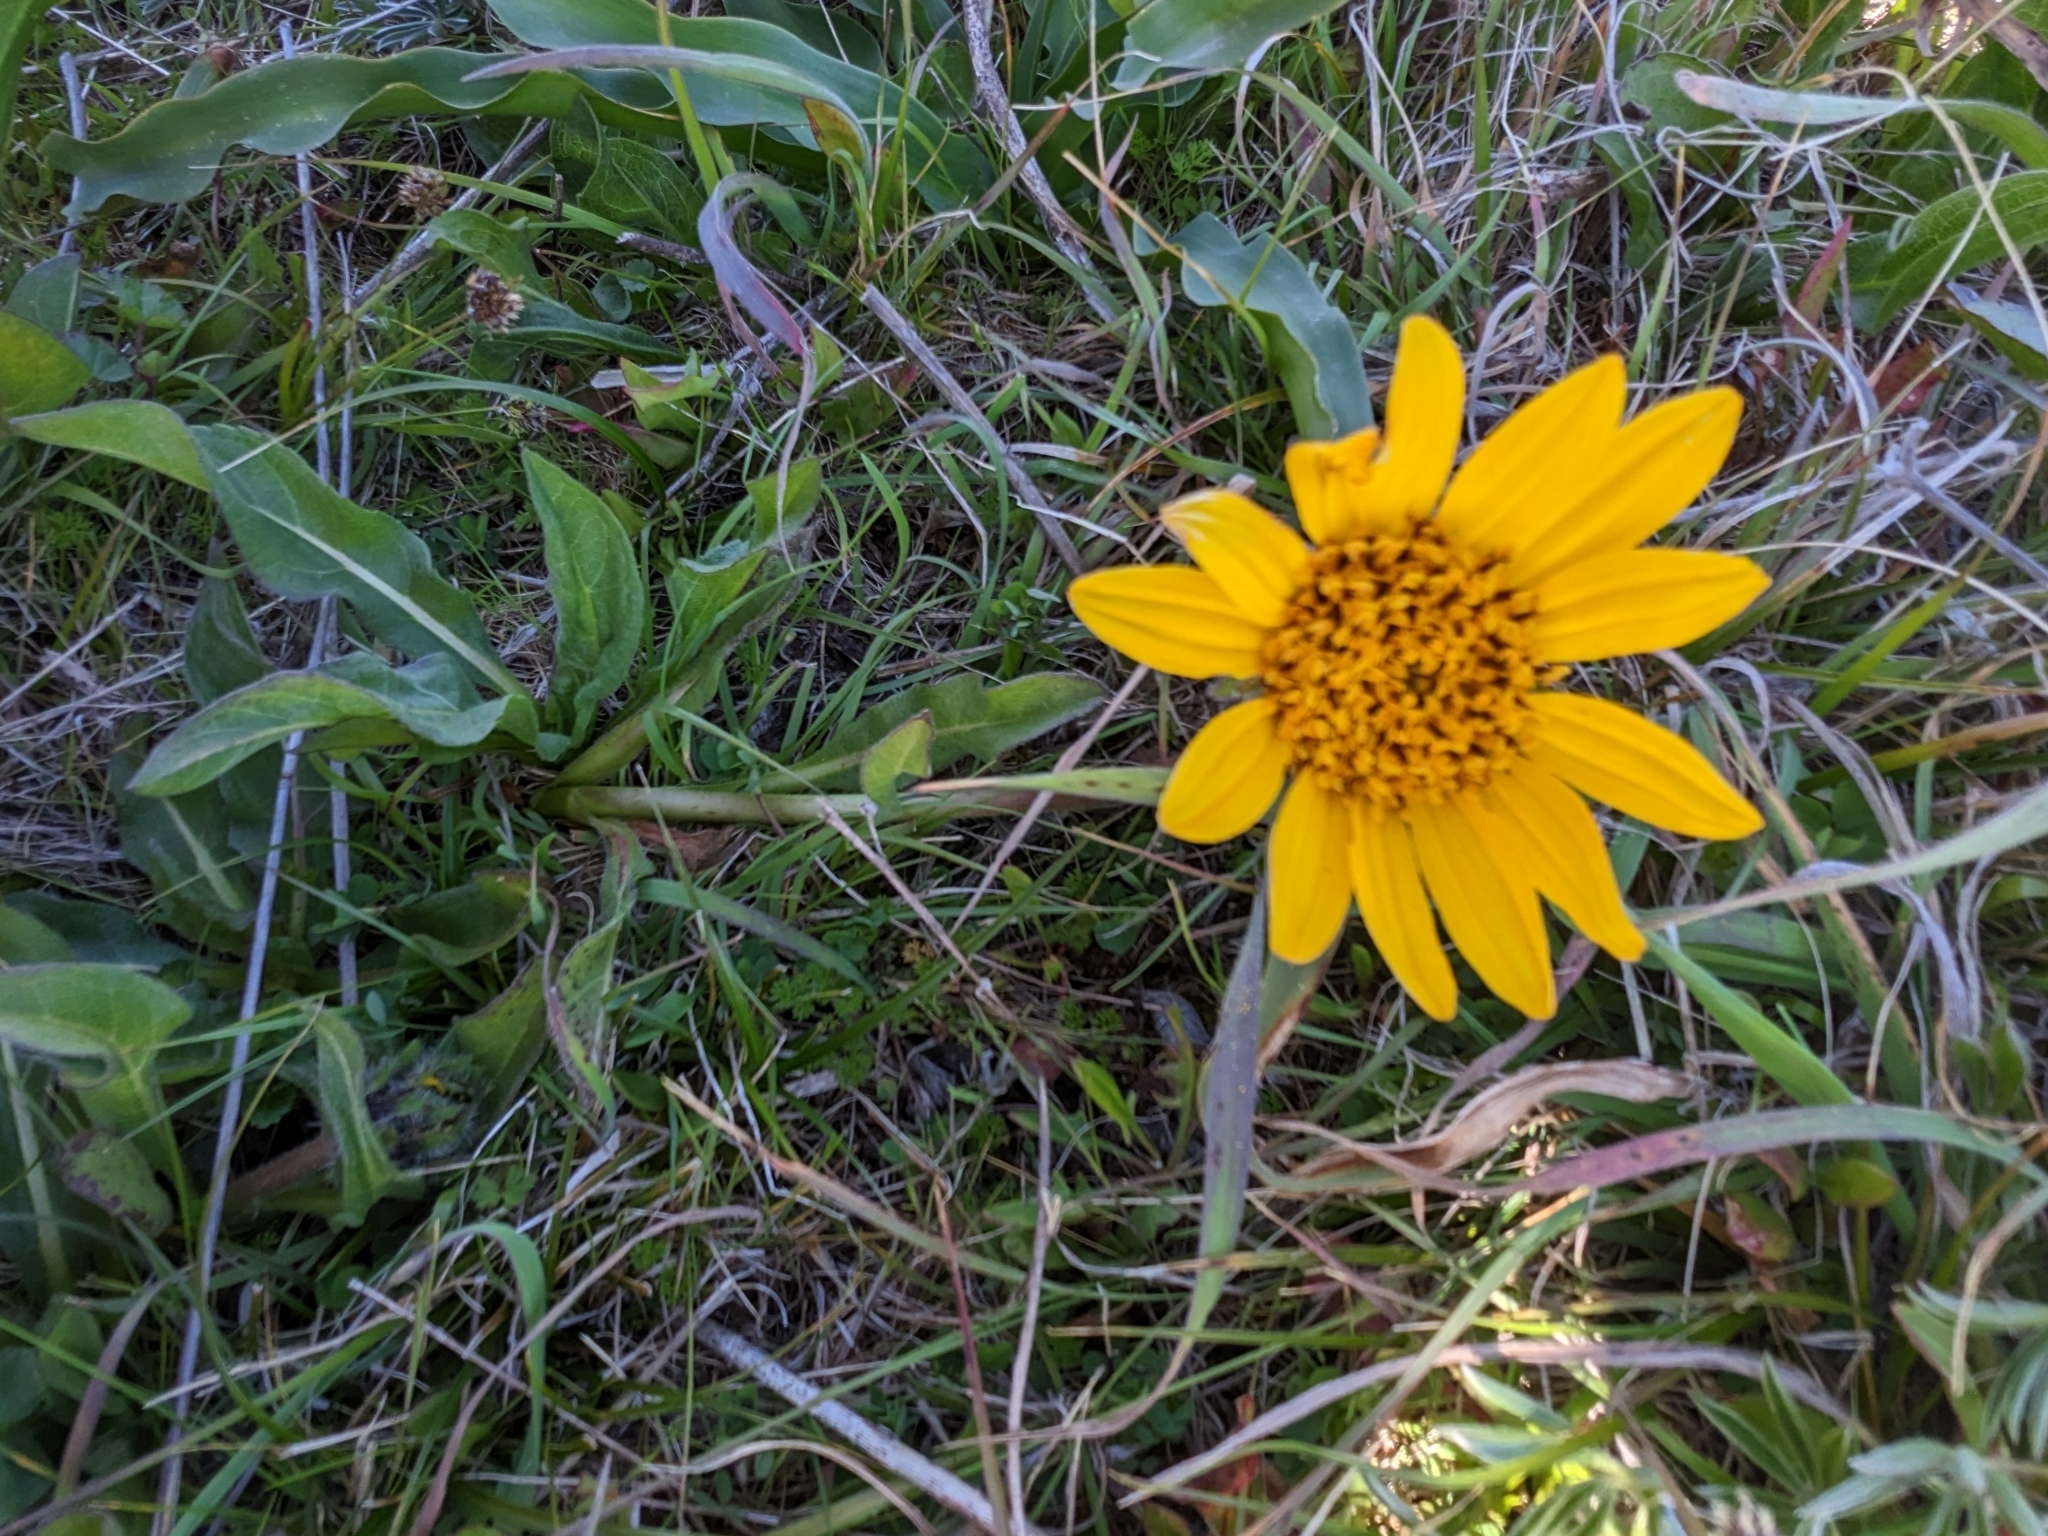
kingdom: Plantae
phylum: Tracheophyta
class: Magnoliopsida
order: Asterales
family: Asteraceae
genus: Wyethia
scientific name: Wyethia angustifolia
